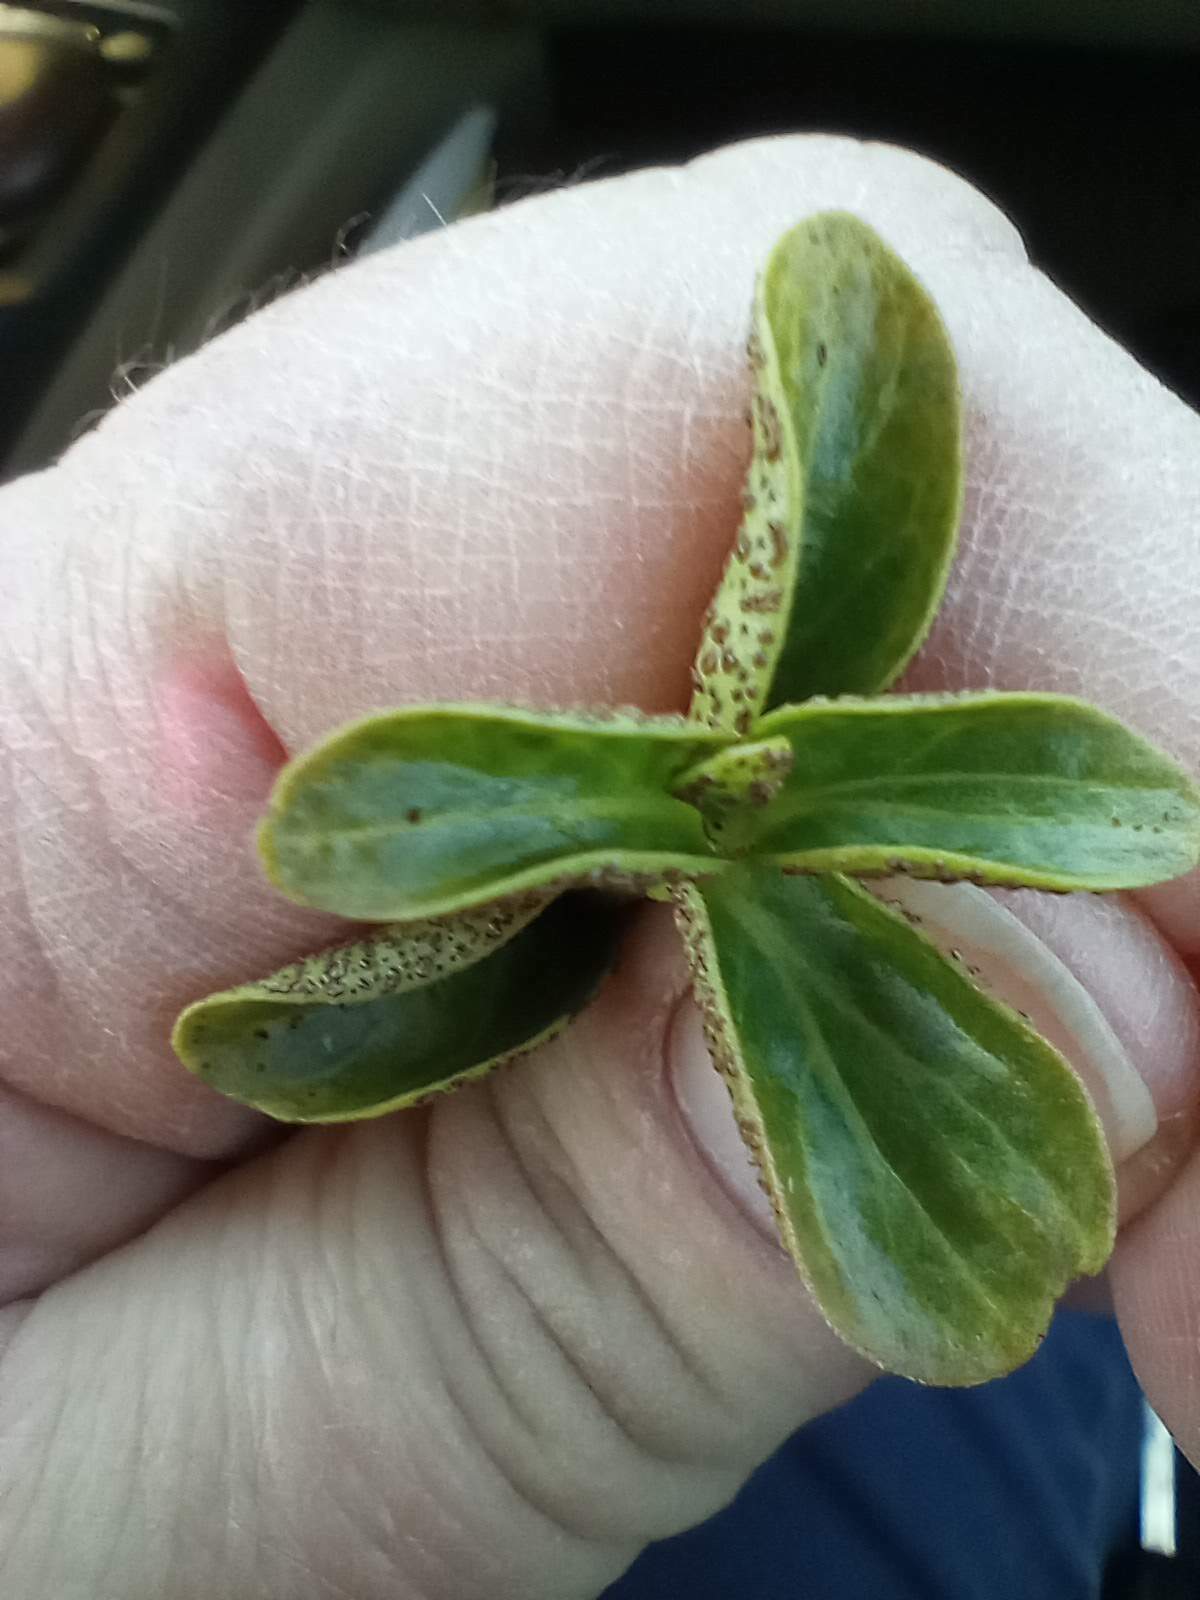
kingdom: Fungi
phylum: Basidiomycota
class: Pucciniomycetes
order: Pucciniales
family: Pucciniaceae
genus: Puccinia
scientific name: Puccinia vincae
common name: Periwinkle rust
